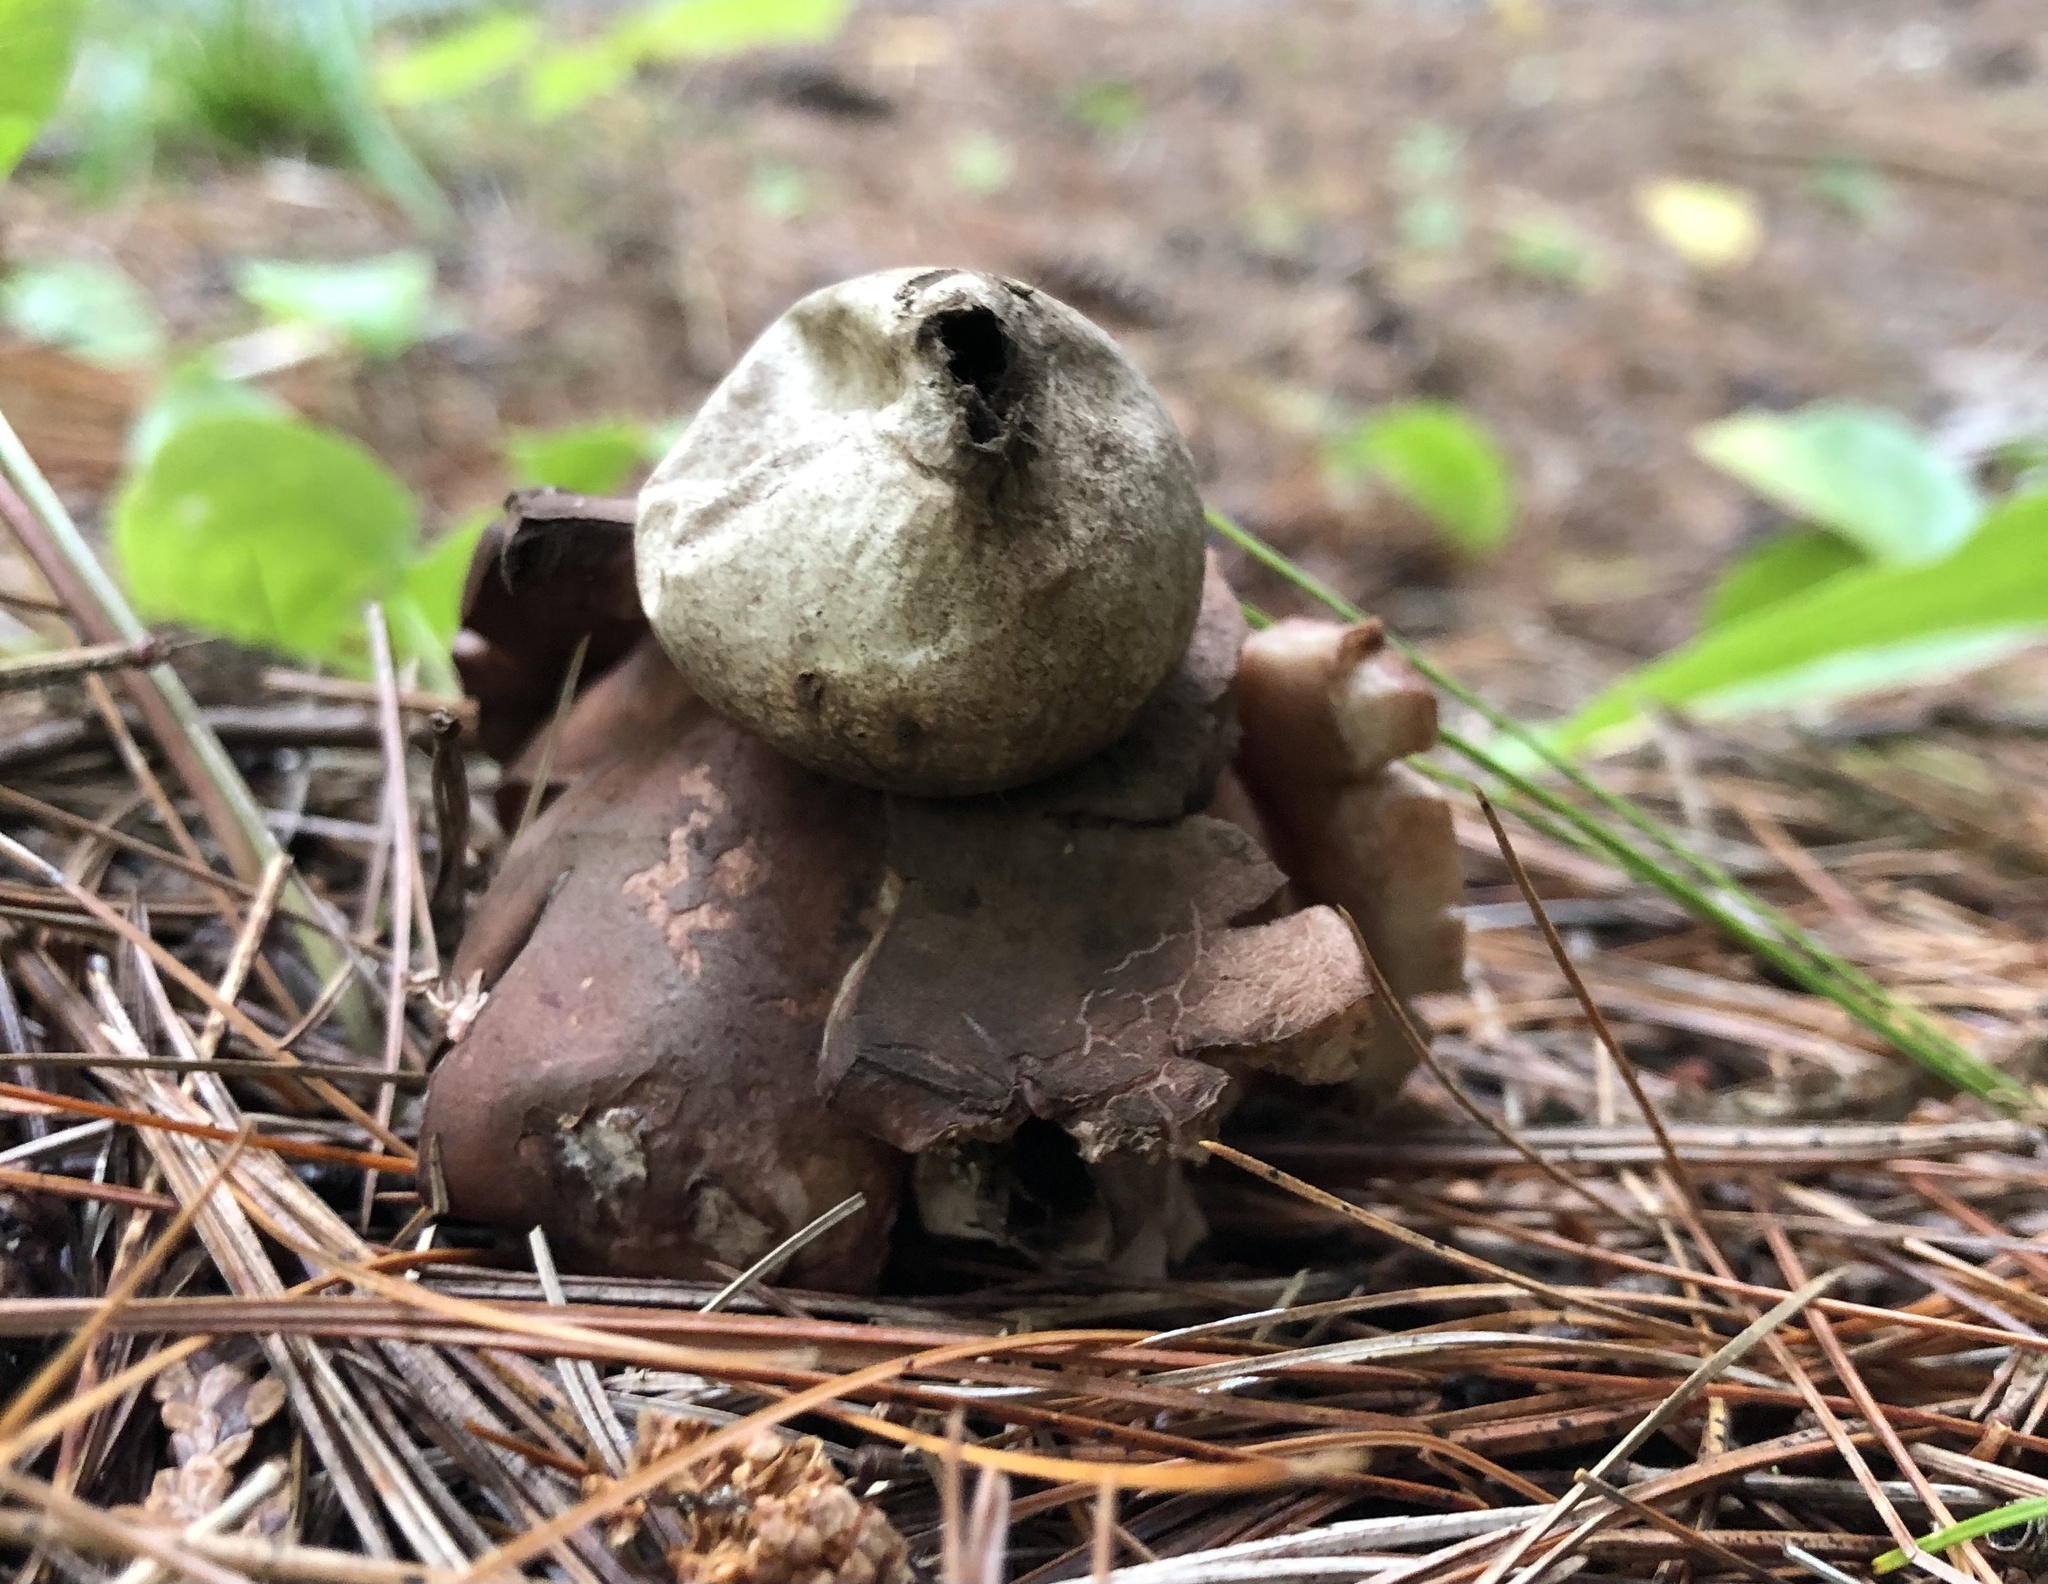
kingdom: Fungi
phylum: Basidiomycota
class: Agaricomycetes
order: Geastrales
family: Geastraceae
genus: Geastrum
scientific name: Geastrum rufescens
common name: Rosy earthstar
